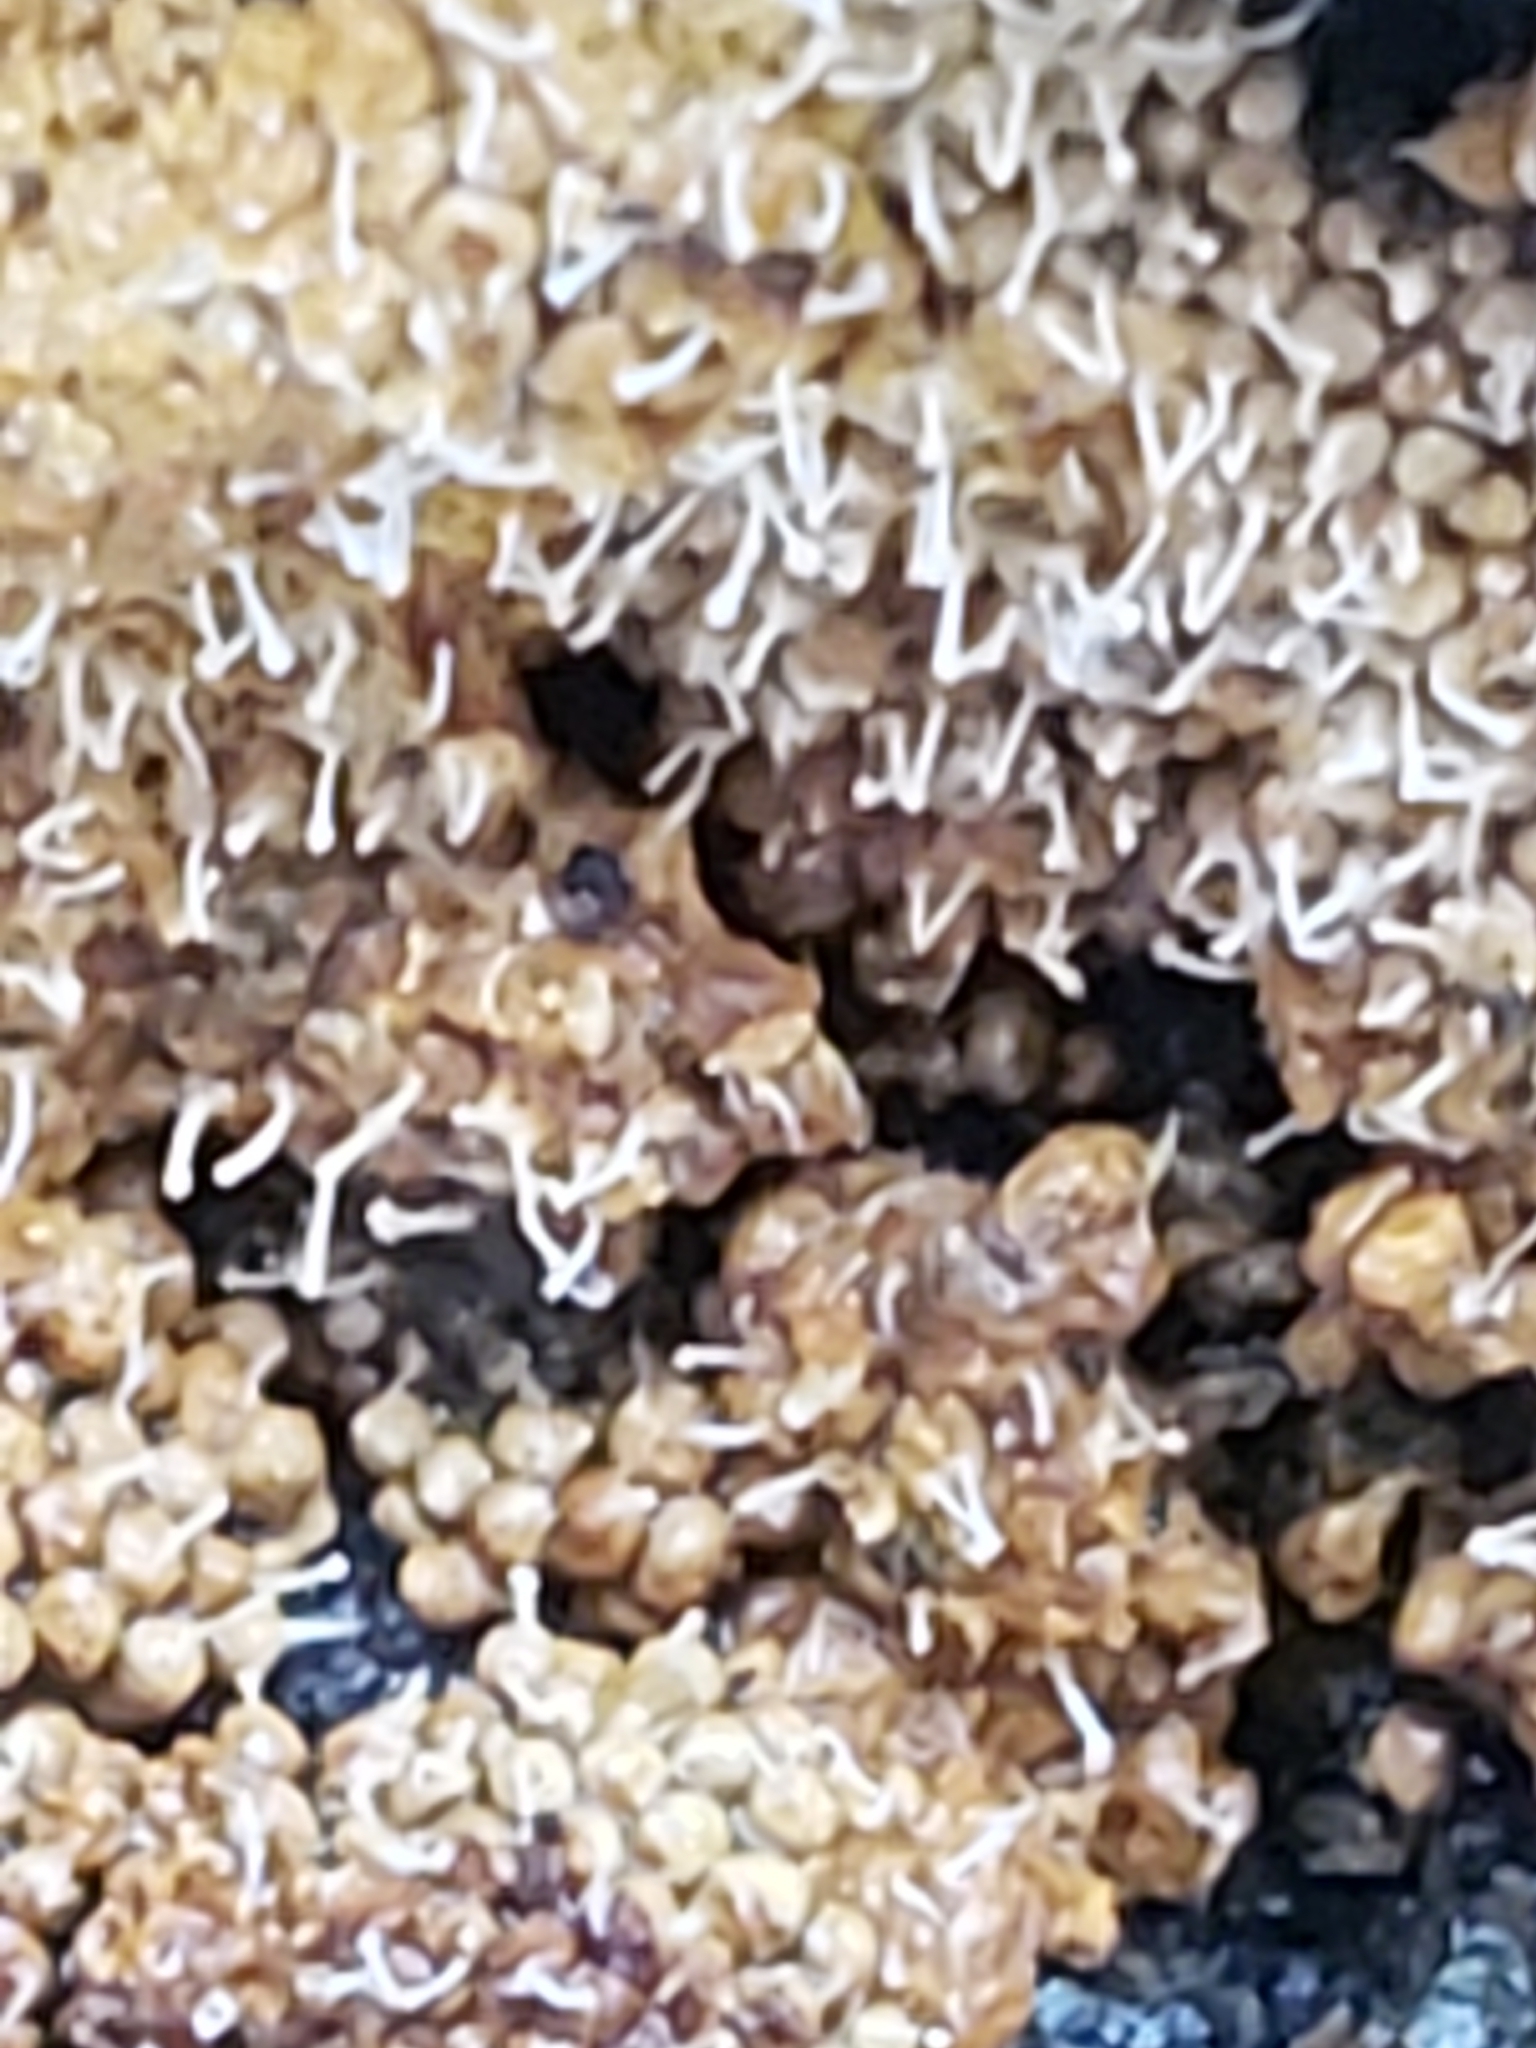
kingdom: Fungi
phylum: Ascomycota
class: Sordariomycetes
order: Hypocreales
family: Ophiocordycipitaceae
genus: Polycephalomyces
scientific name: Polycephalomyces tomentosus
